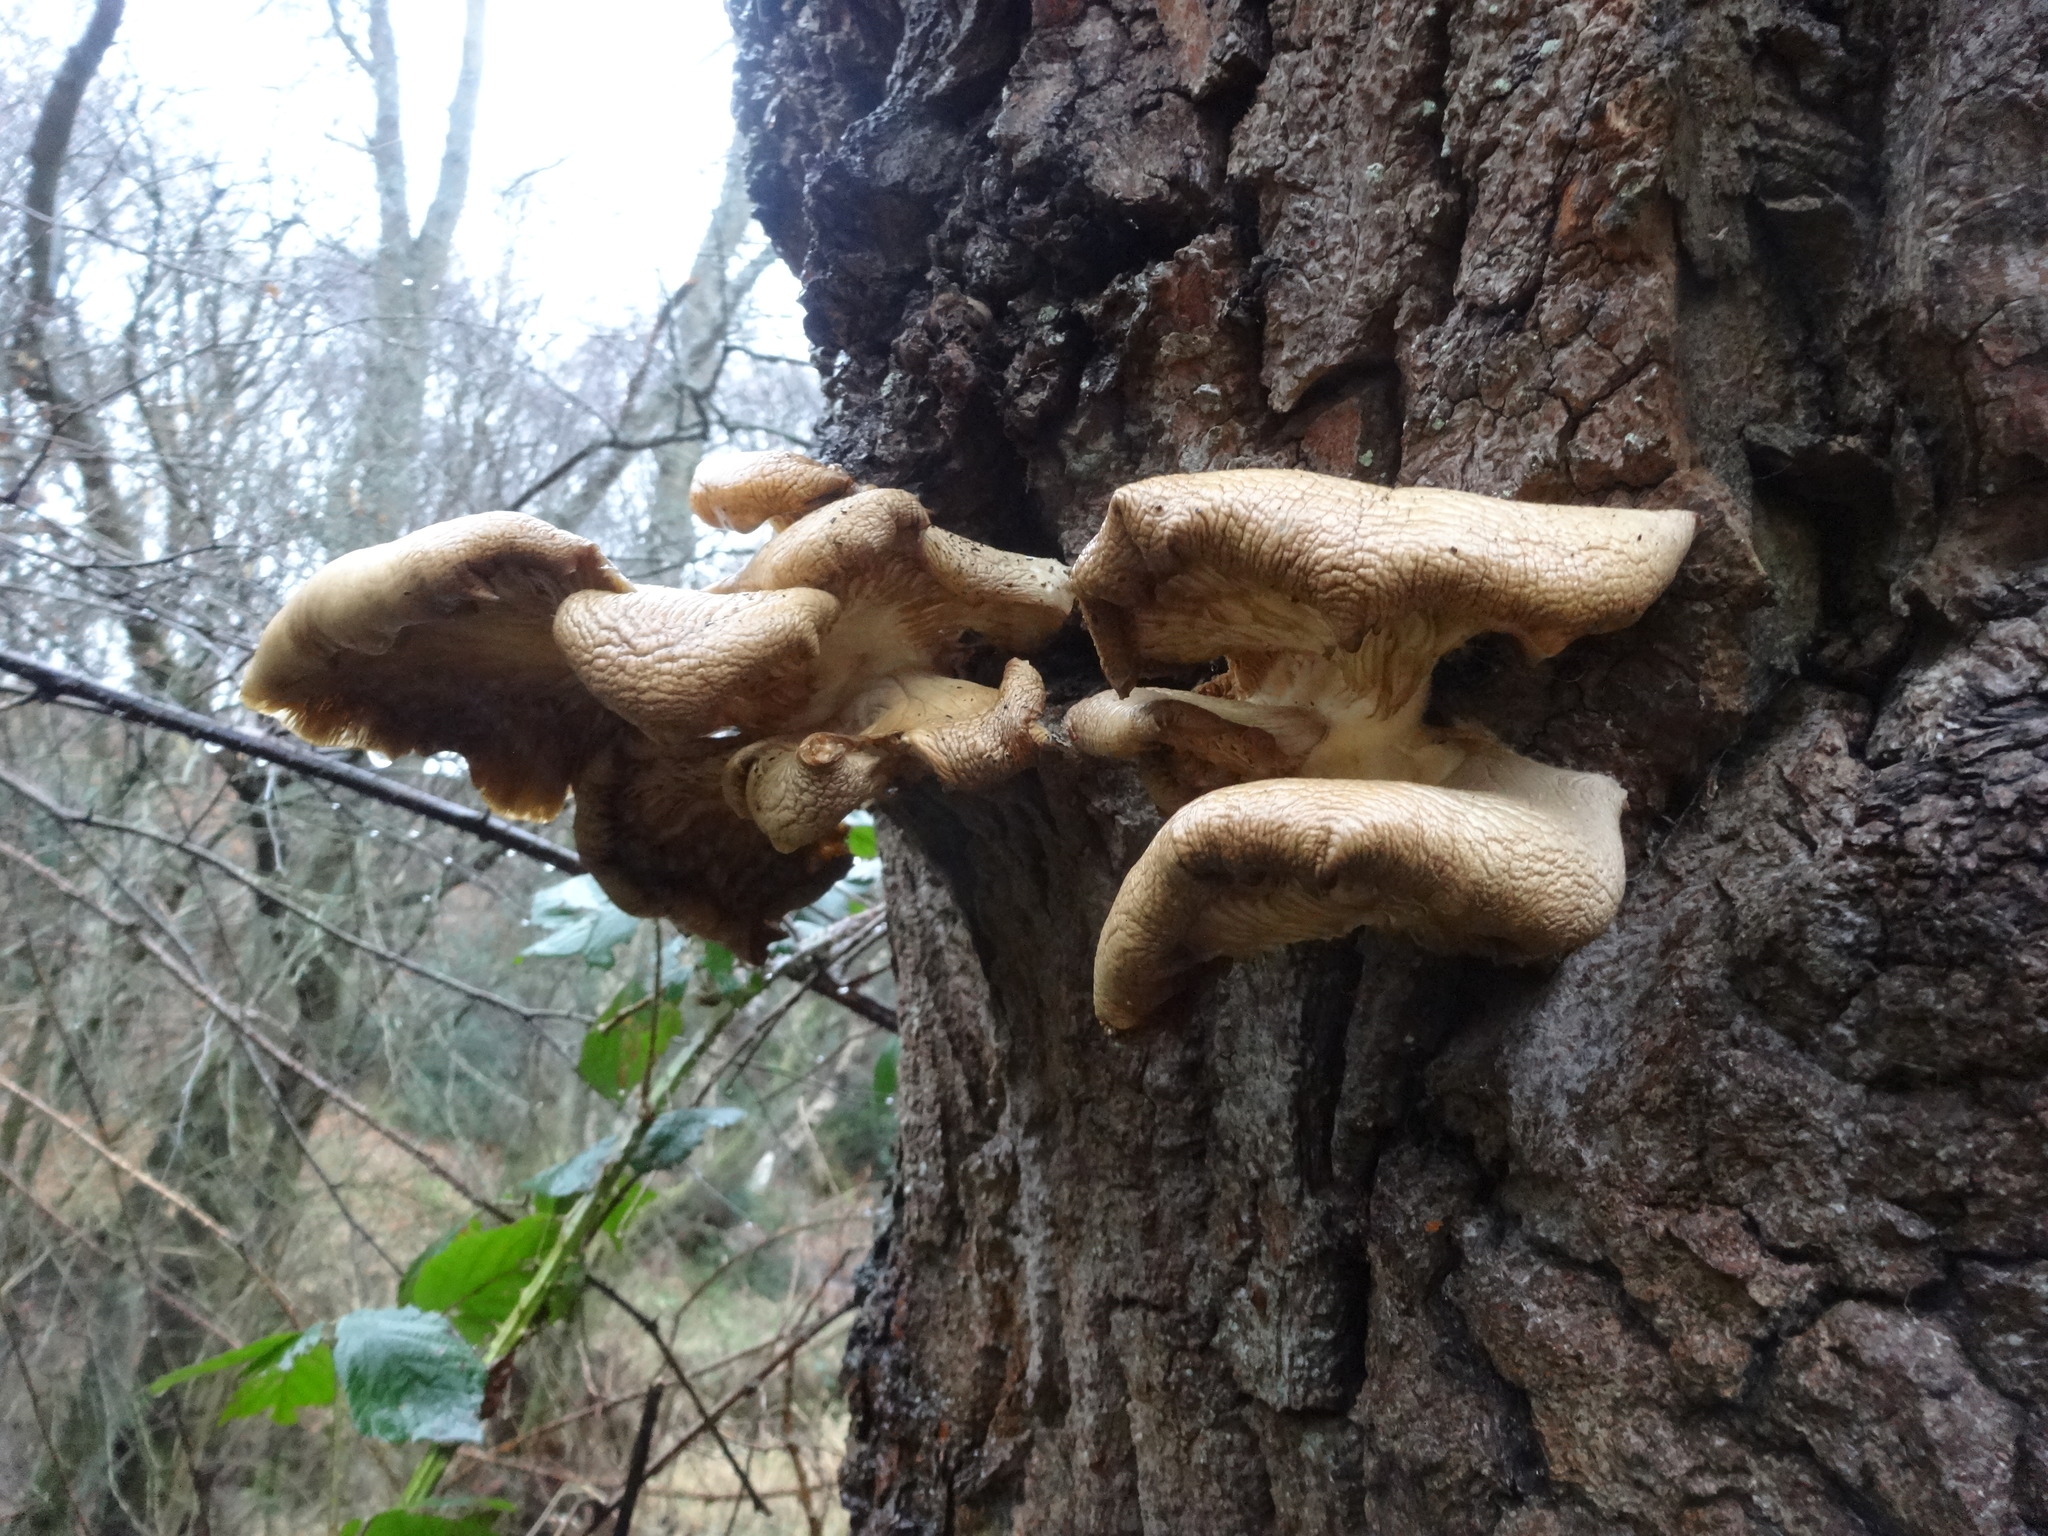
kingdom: Fungi
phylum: Basidiomycota
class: Agaricomycetes
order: Agaricales
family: Pleurotaceae
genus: Pleurotus
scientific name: Pleurotus ostreatus
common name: Oyster mushroom
